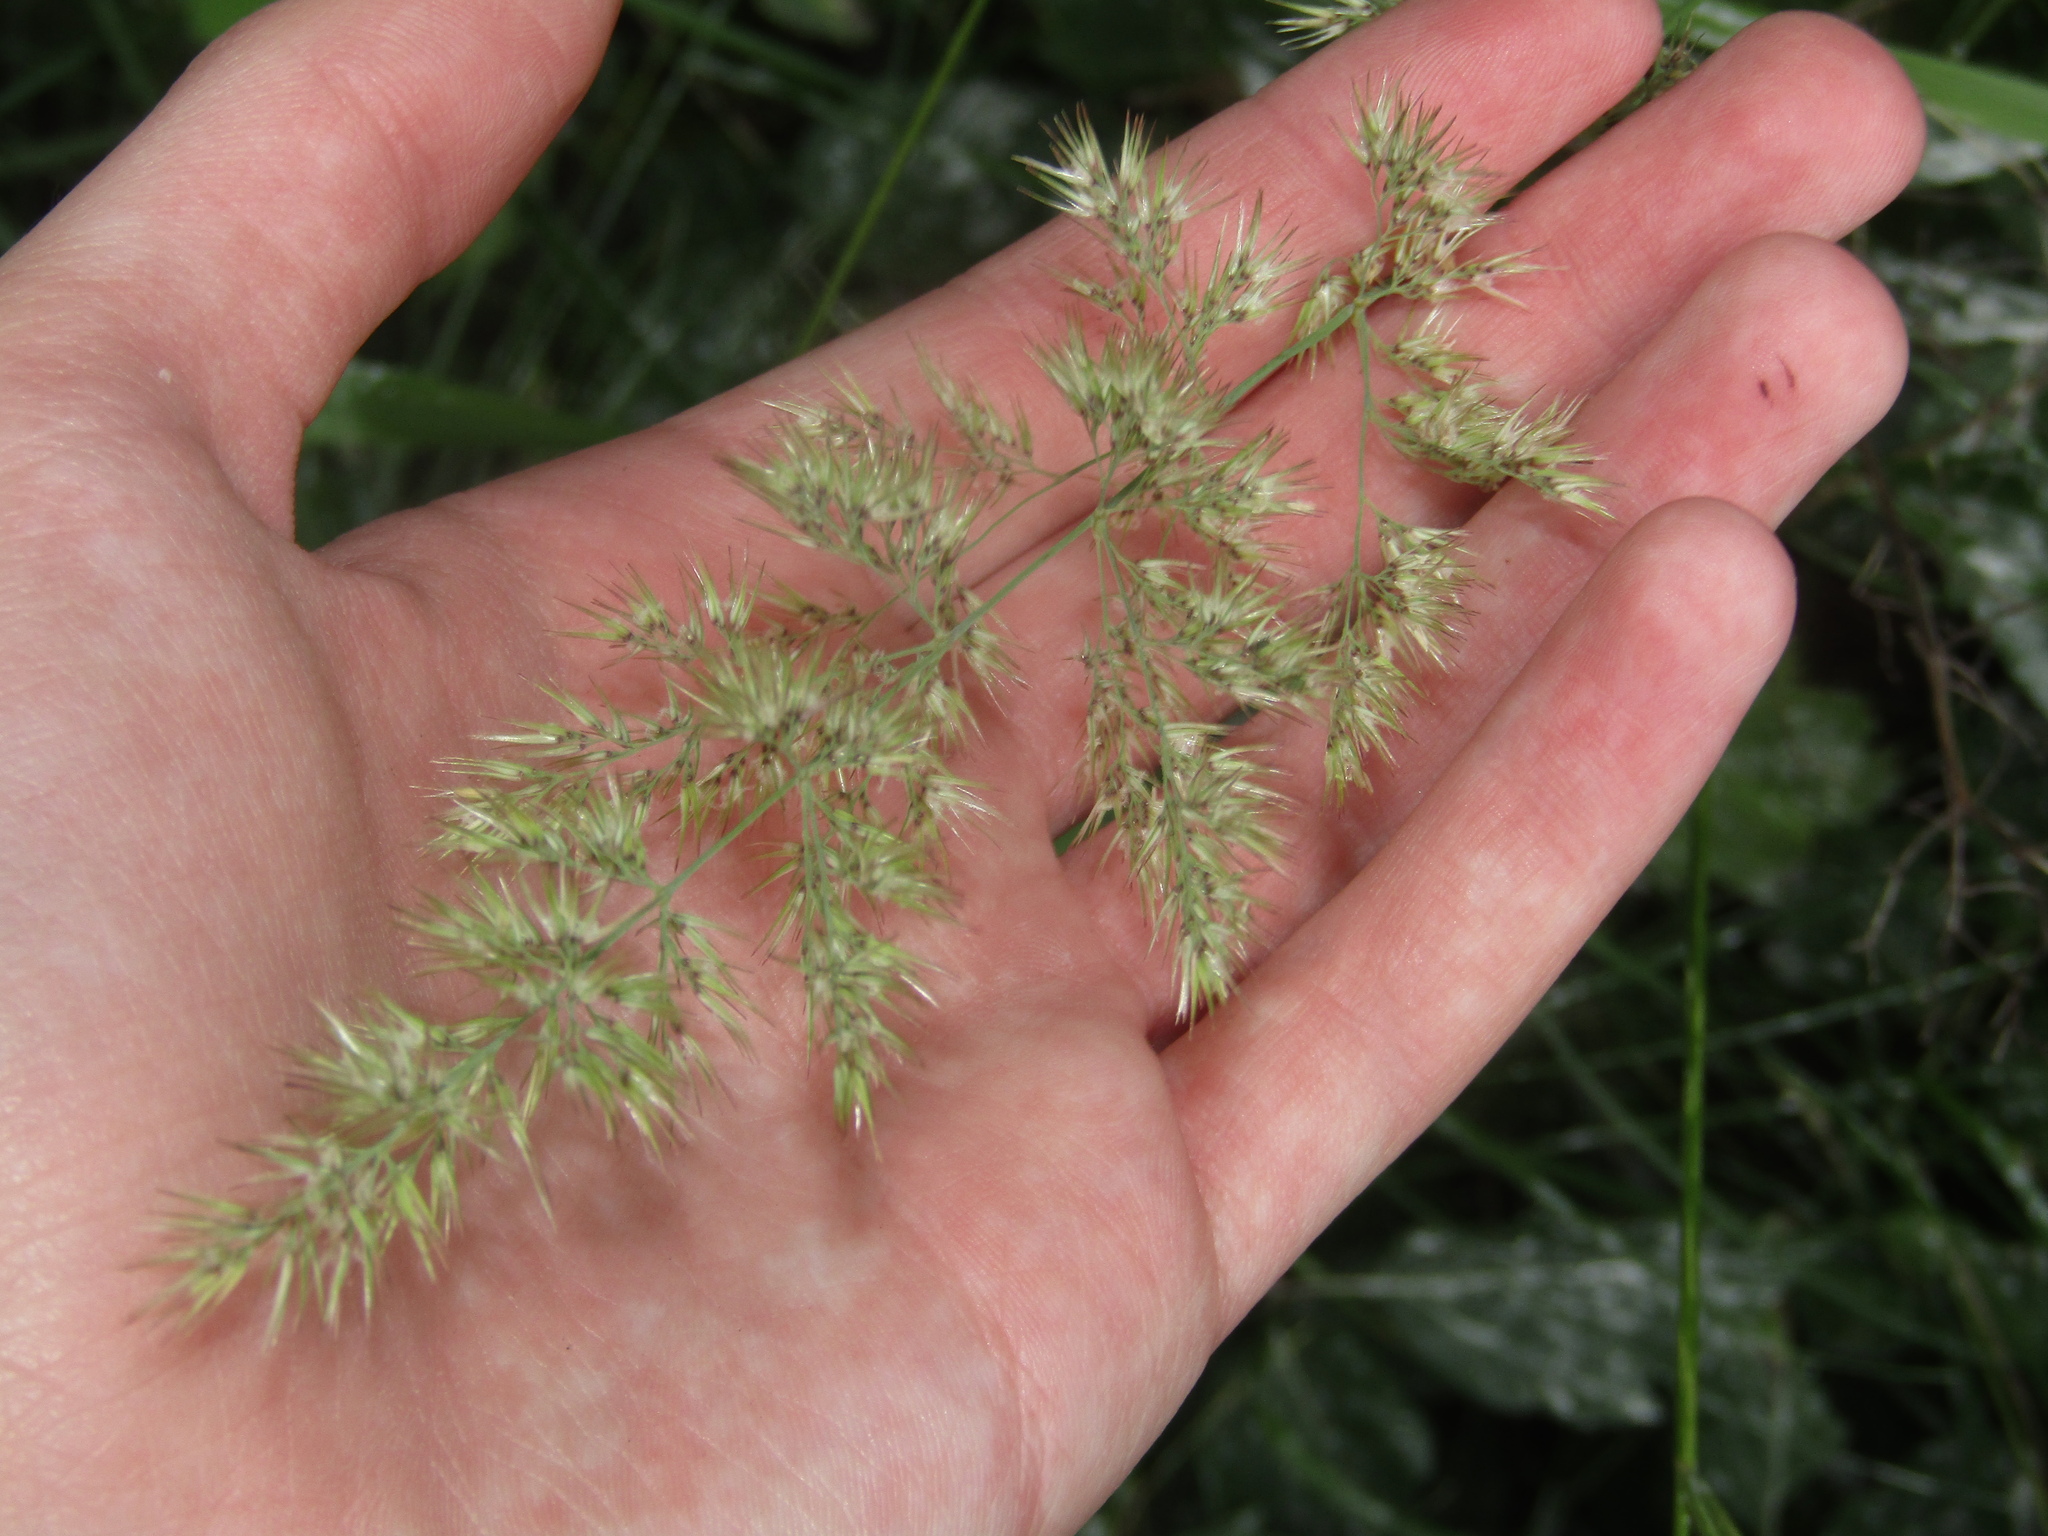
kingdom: Plantae
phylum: Tracheophyta
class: Liliopsida
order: Poales
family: Poaceae
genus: Calamagrostis
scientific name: Calamagrostis epigejos
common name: Wood small-reed
